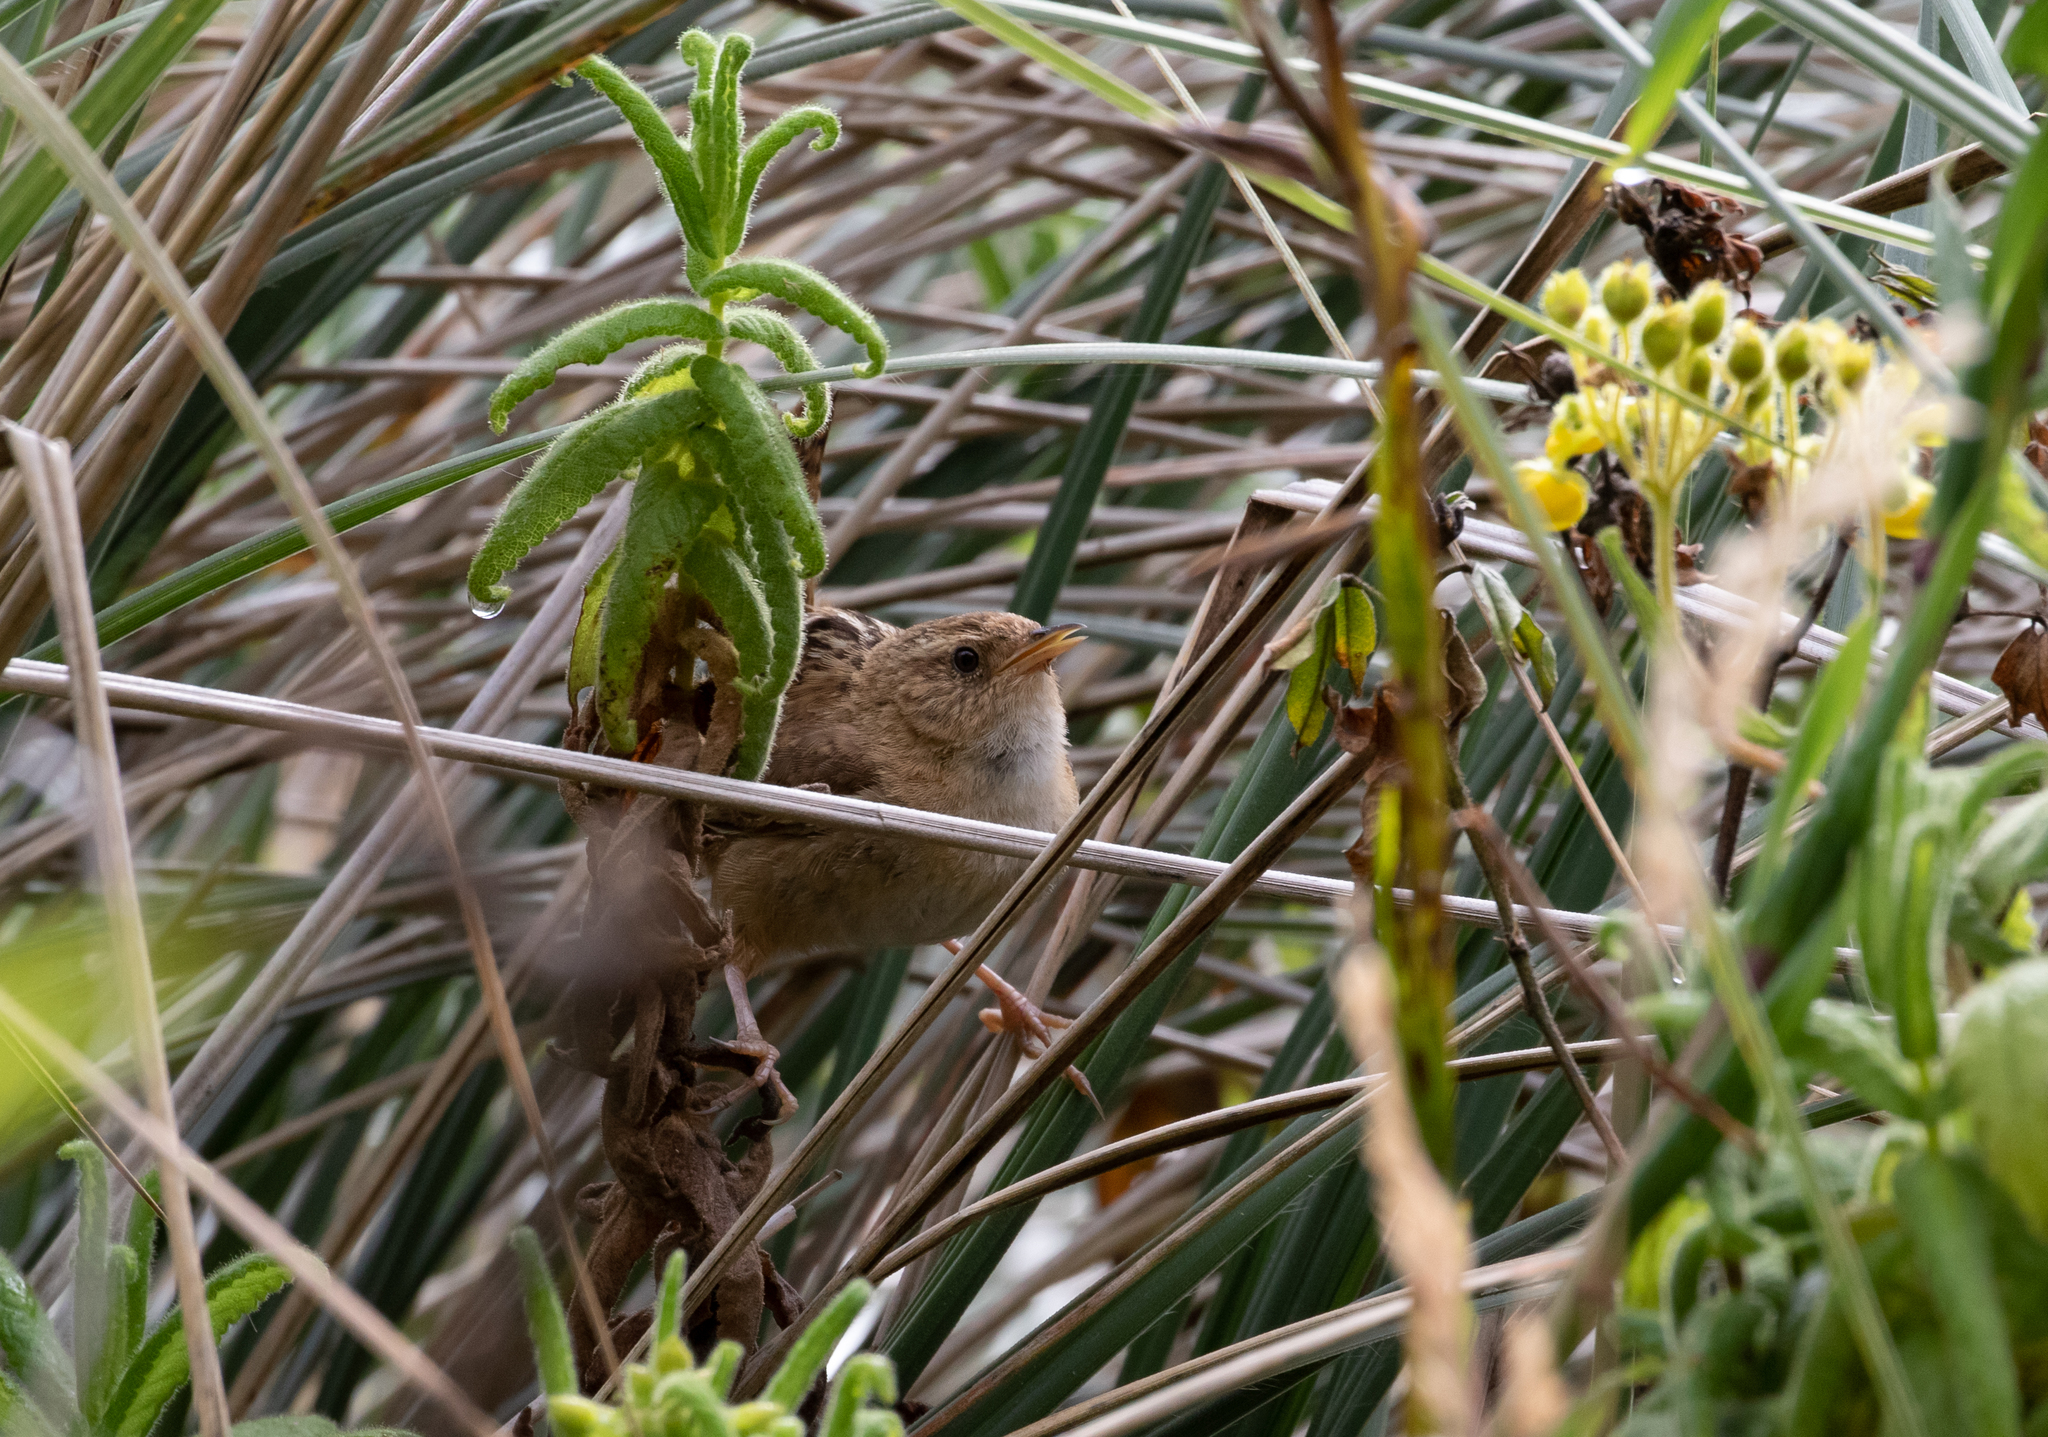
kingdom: Animalia
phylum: Chordata
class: Aves
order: Passeriformes
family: Troglodytidae
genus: Cistothorus
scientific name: Cistothorus platensis
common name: Sedge wren
